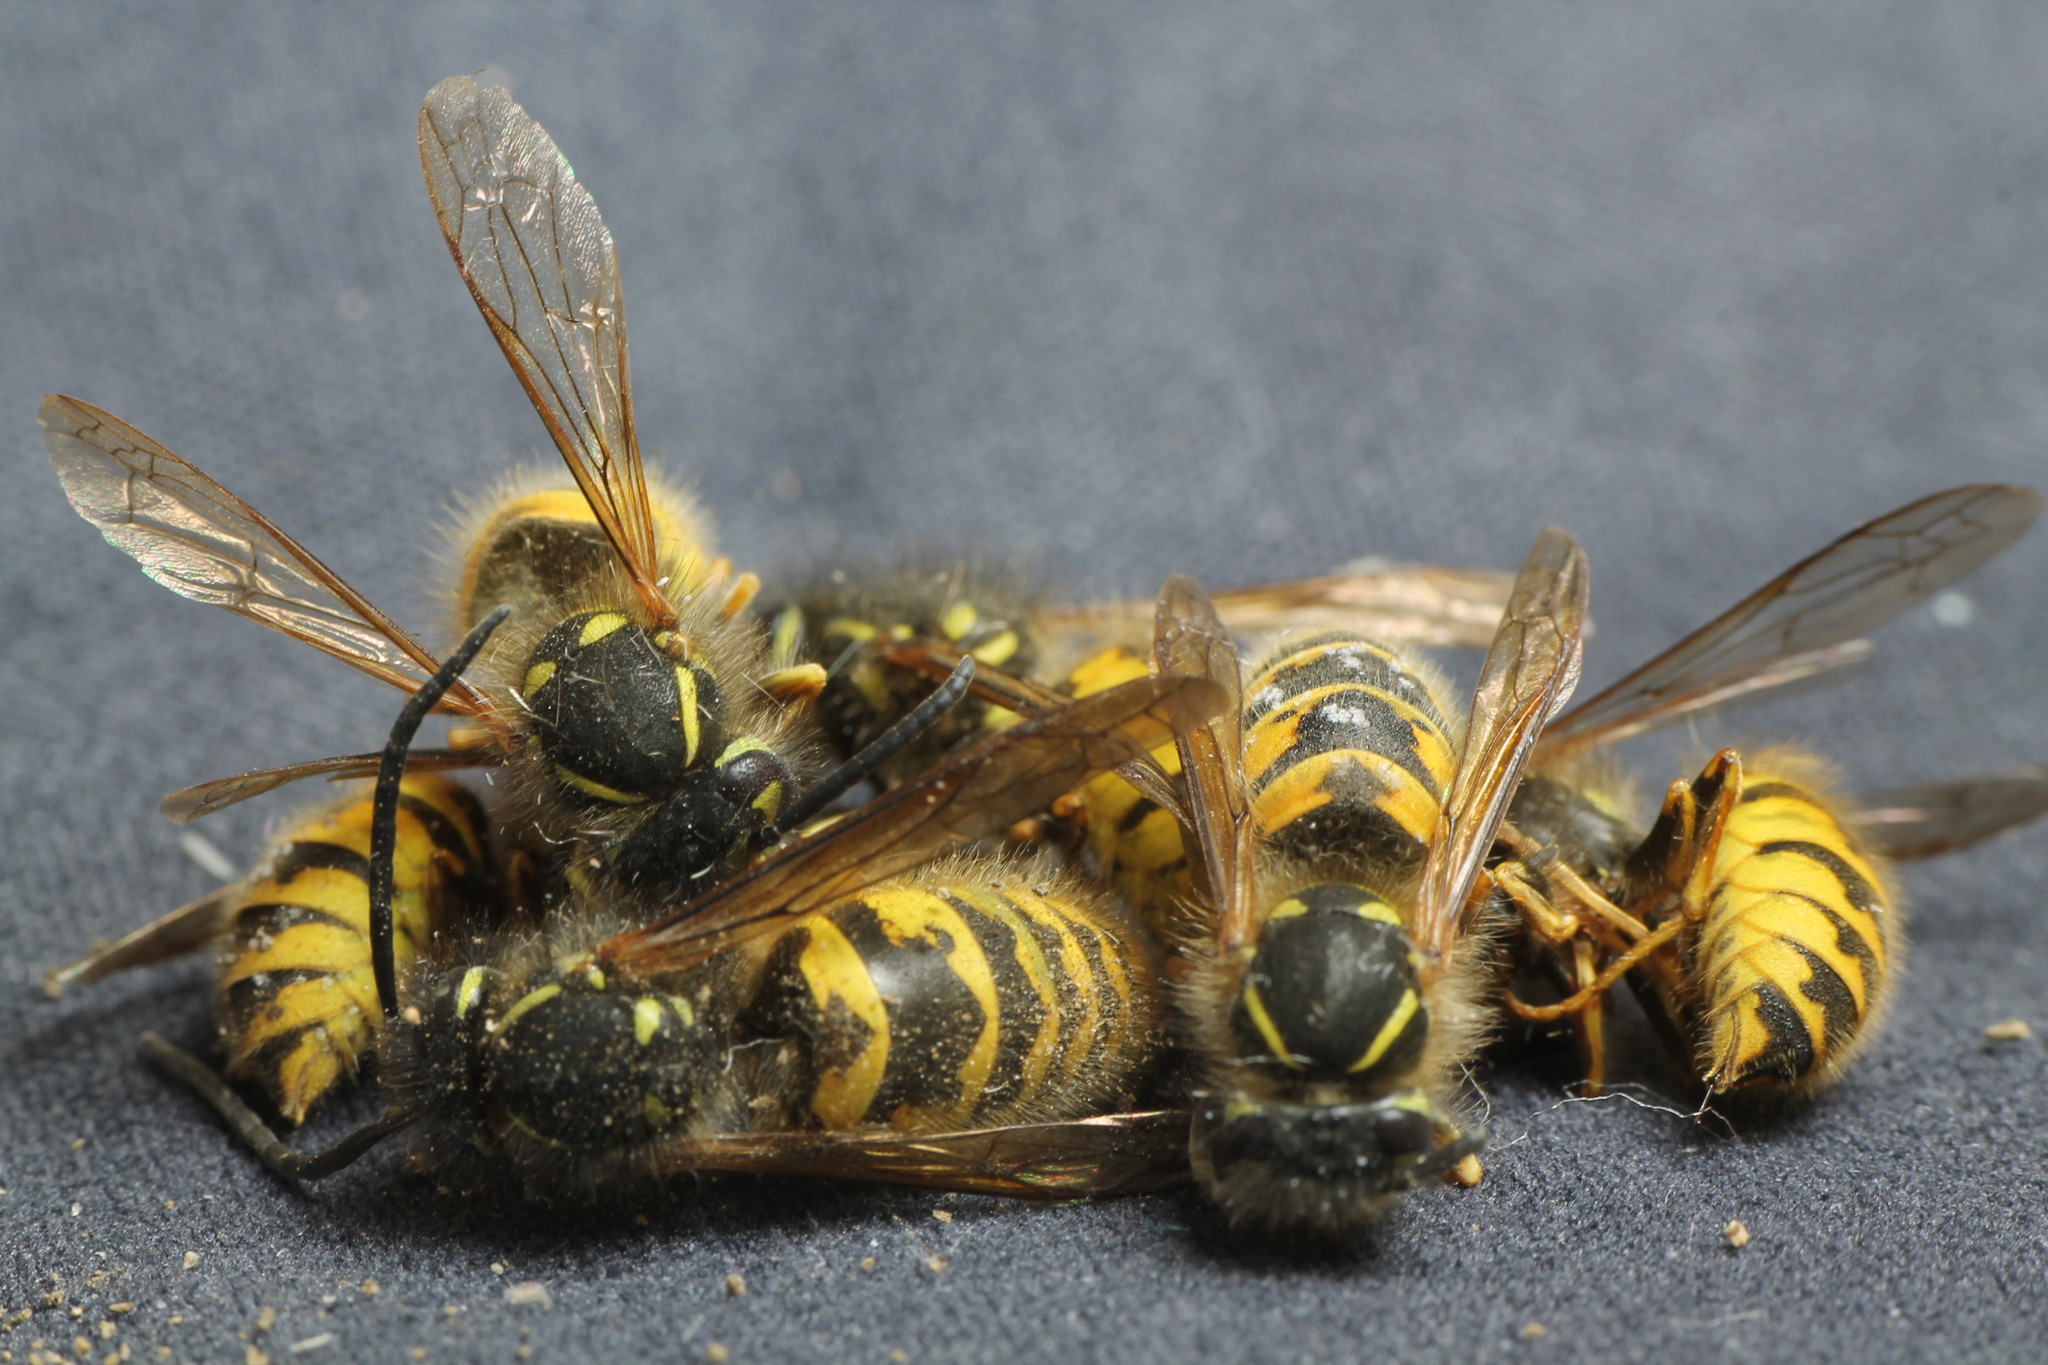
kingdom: Animalia
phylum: Arthropoda
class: Insecta
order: Hymenoptera
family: Vespidae
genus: Vespula
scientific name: Vespula vulgaris
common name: Common wasp
